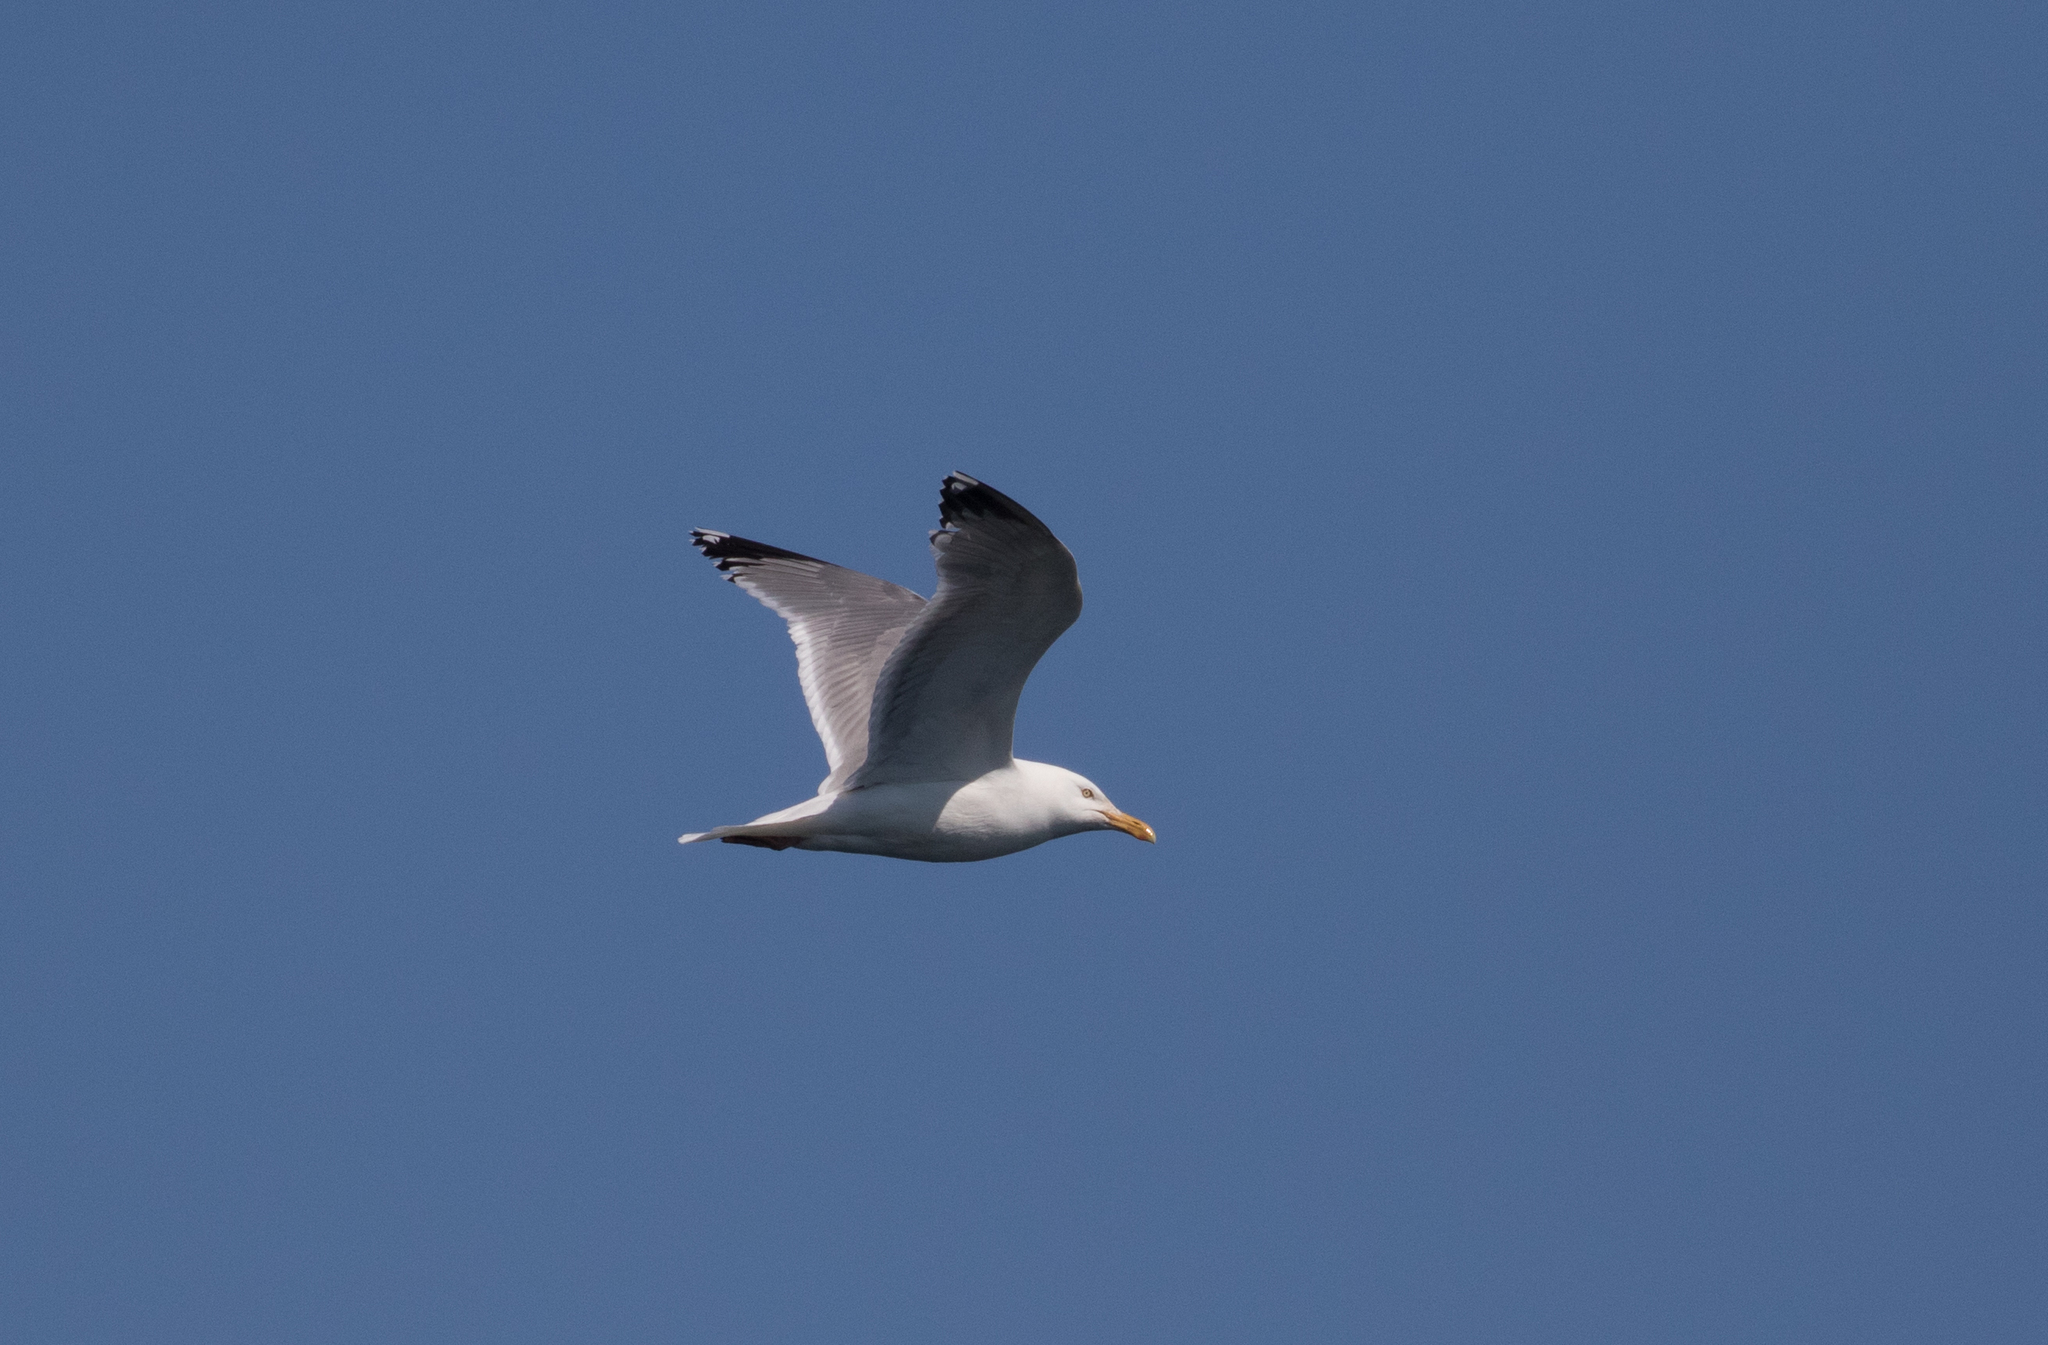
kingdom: Animalia
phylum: Chordata
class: Aves
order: Charadriiformes
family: Laridae
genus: Larus
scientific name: Larus argentatus
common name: Herring gull
